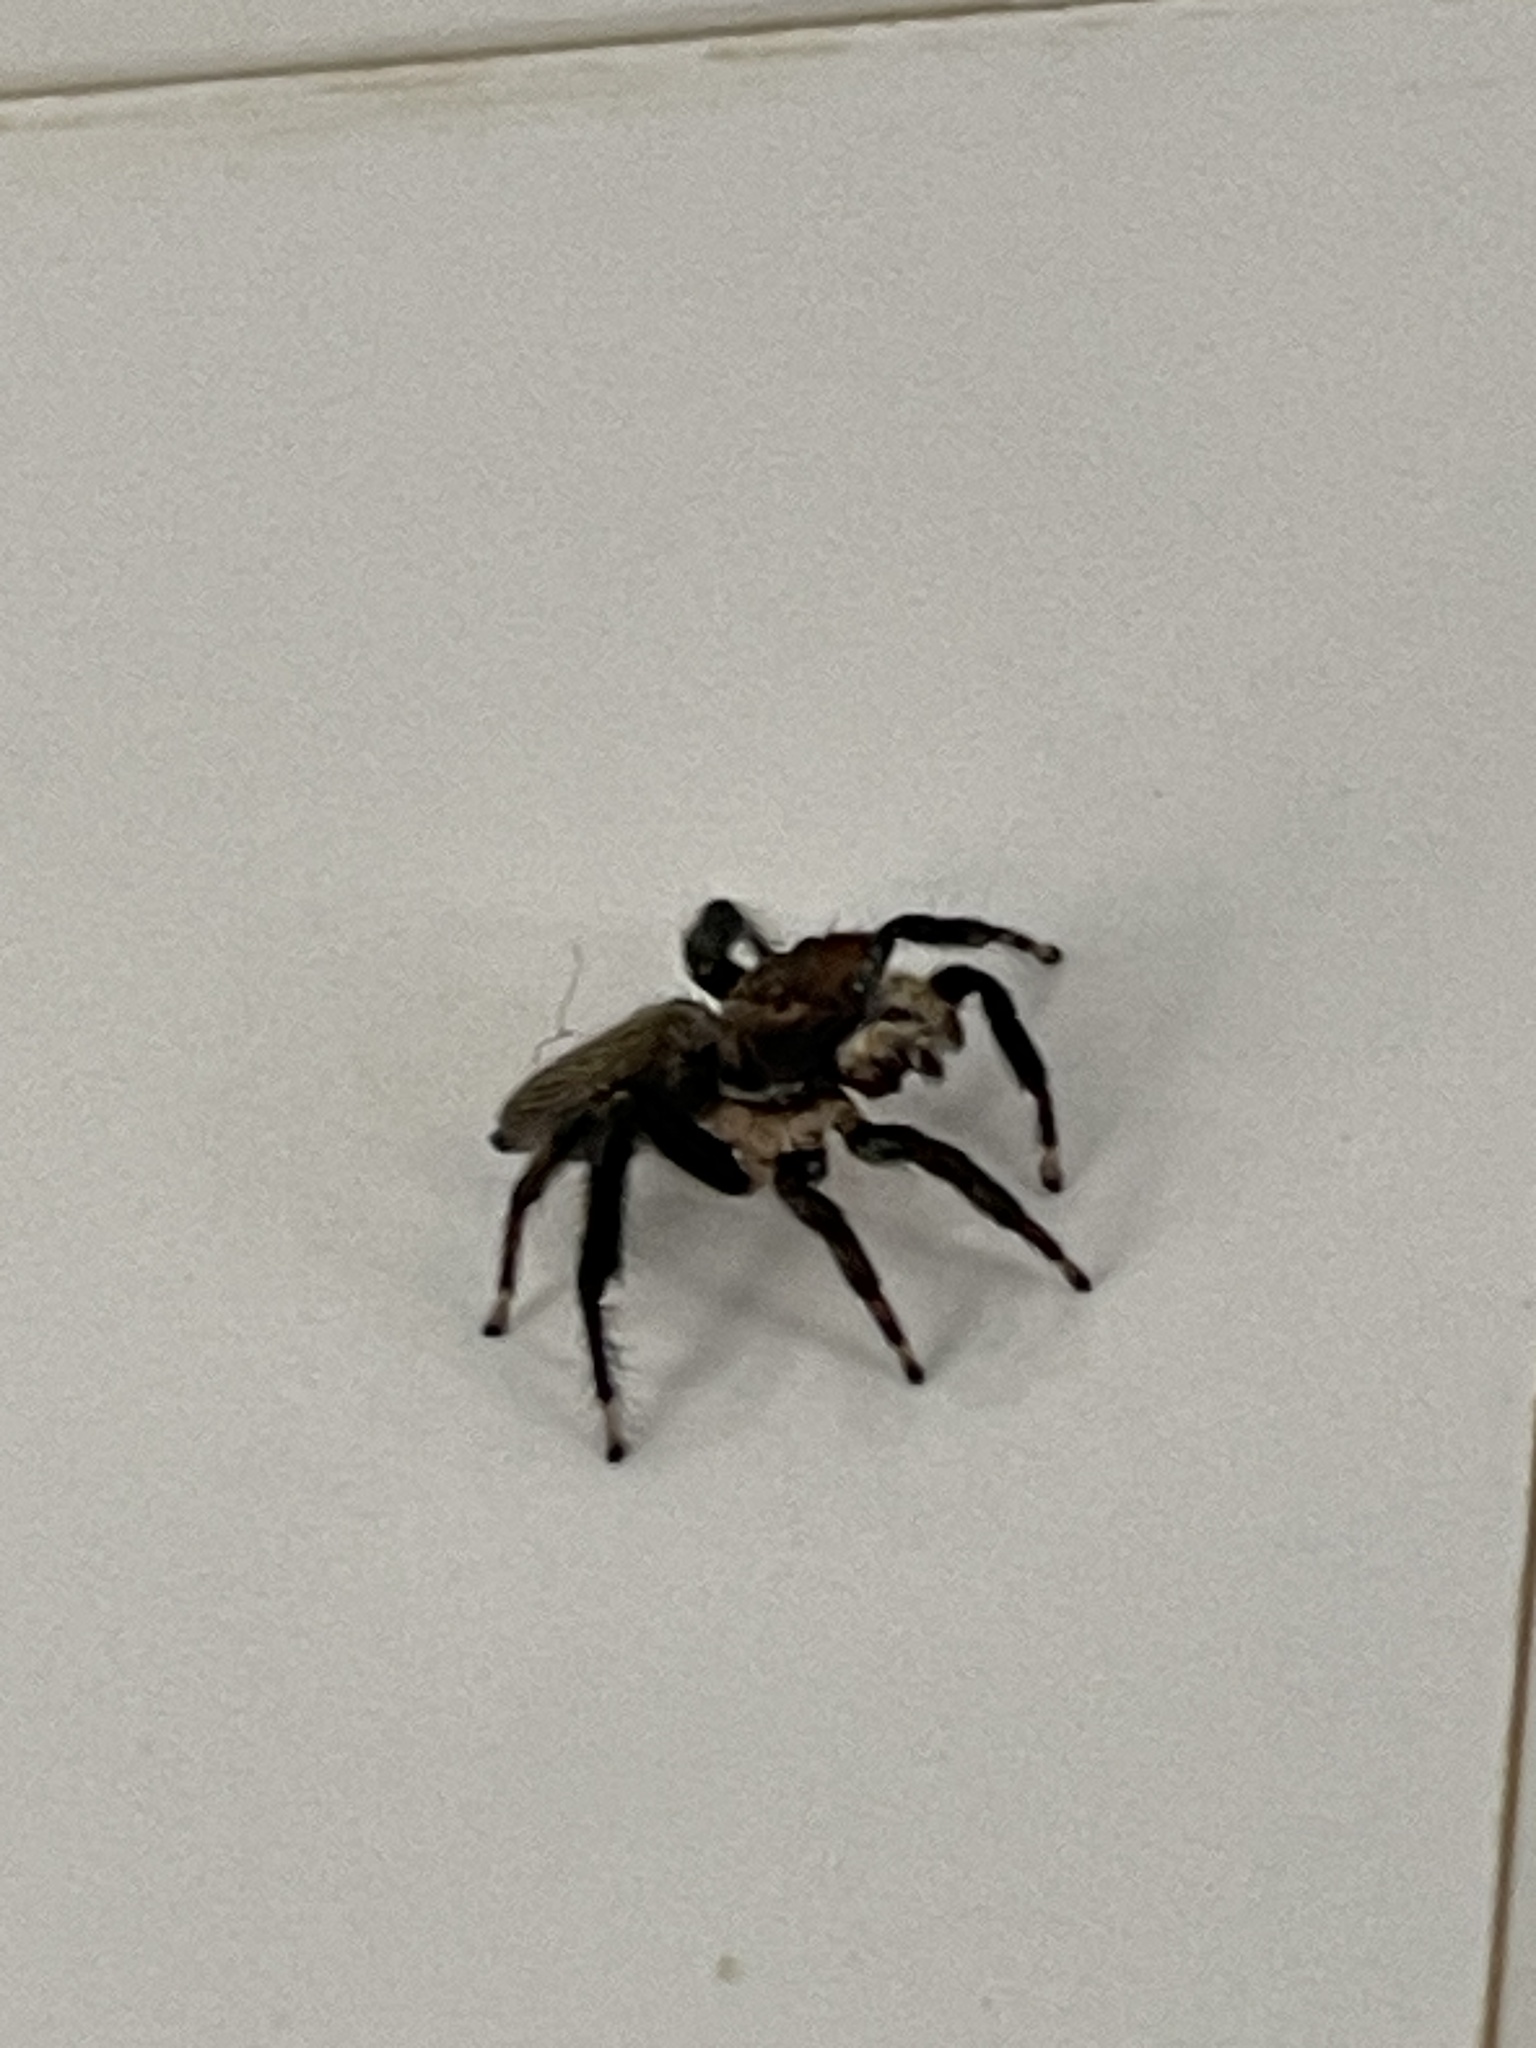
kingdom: Animalia
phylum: Arthropoda
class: Arachnida
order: Araneae
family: Salticidae
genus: Maratus
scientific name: Maratus griseus
